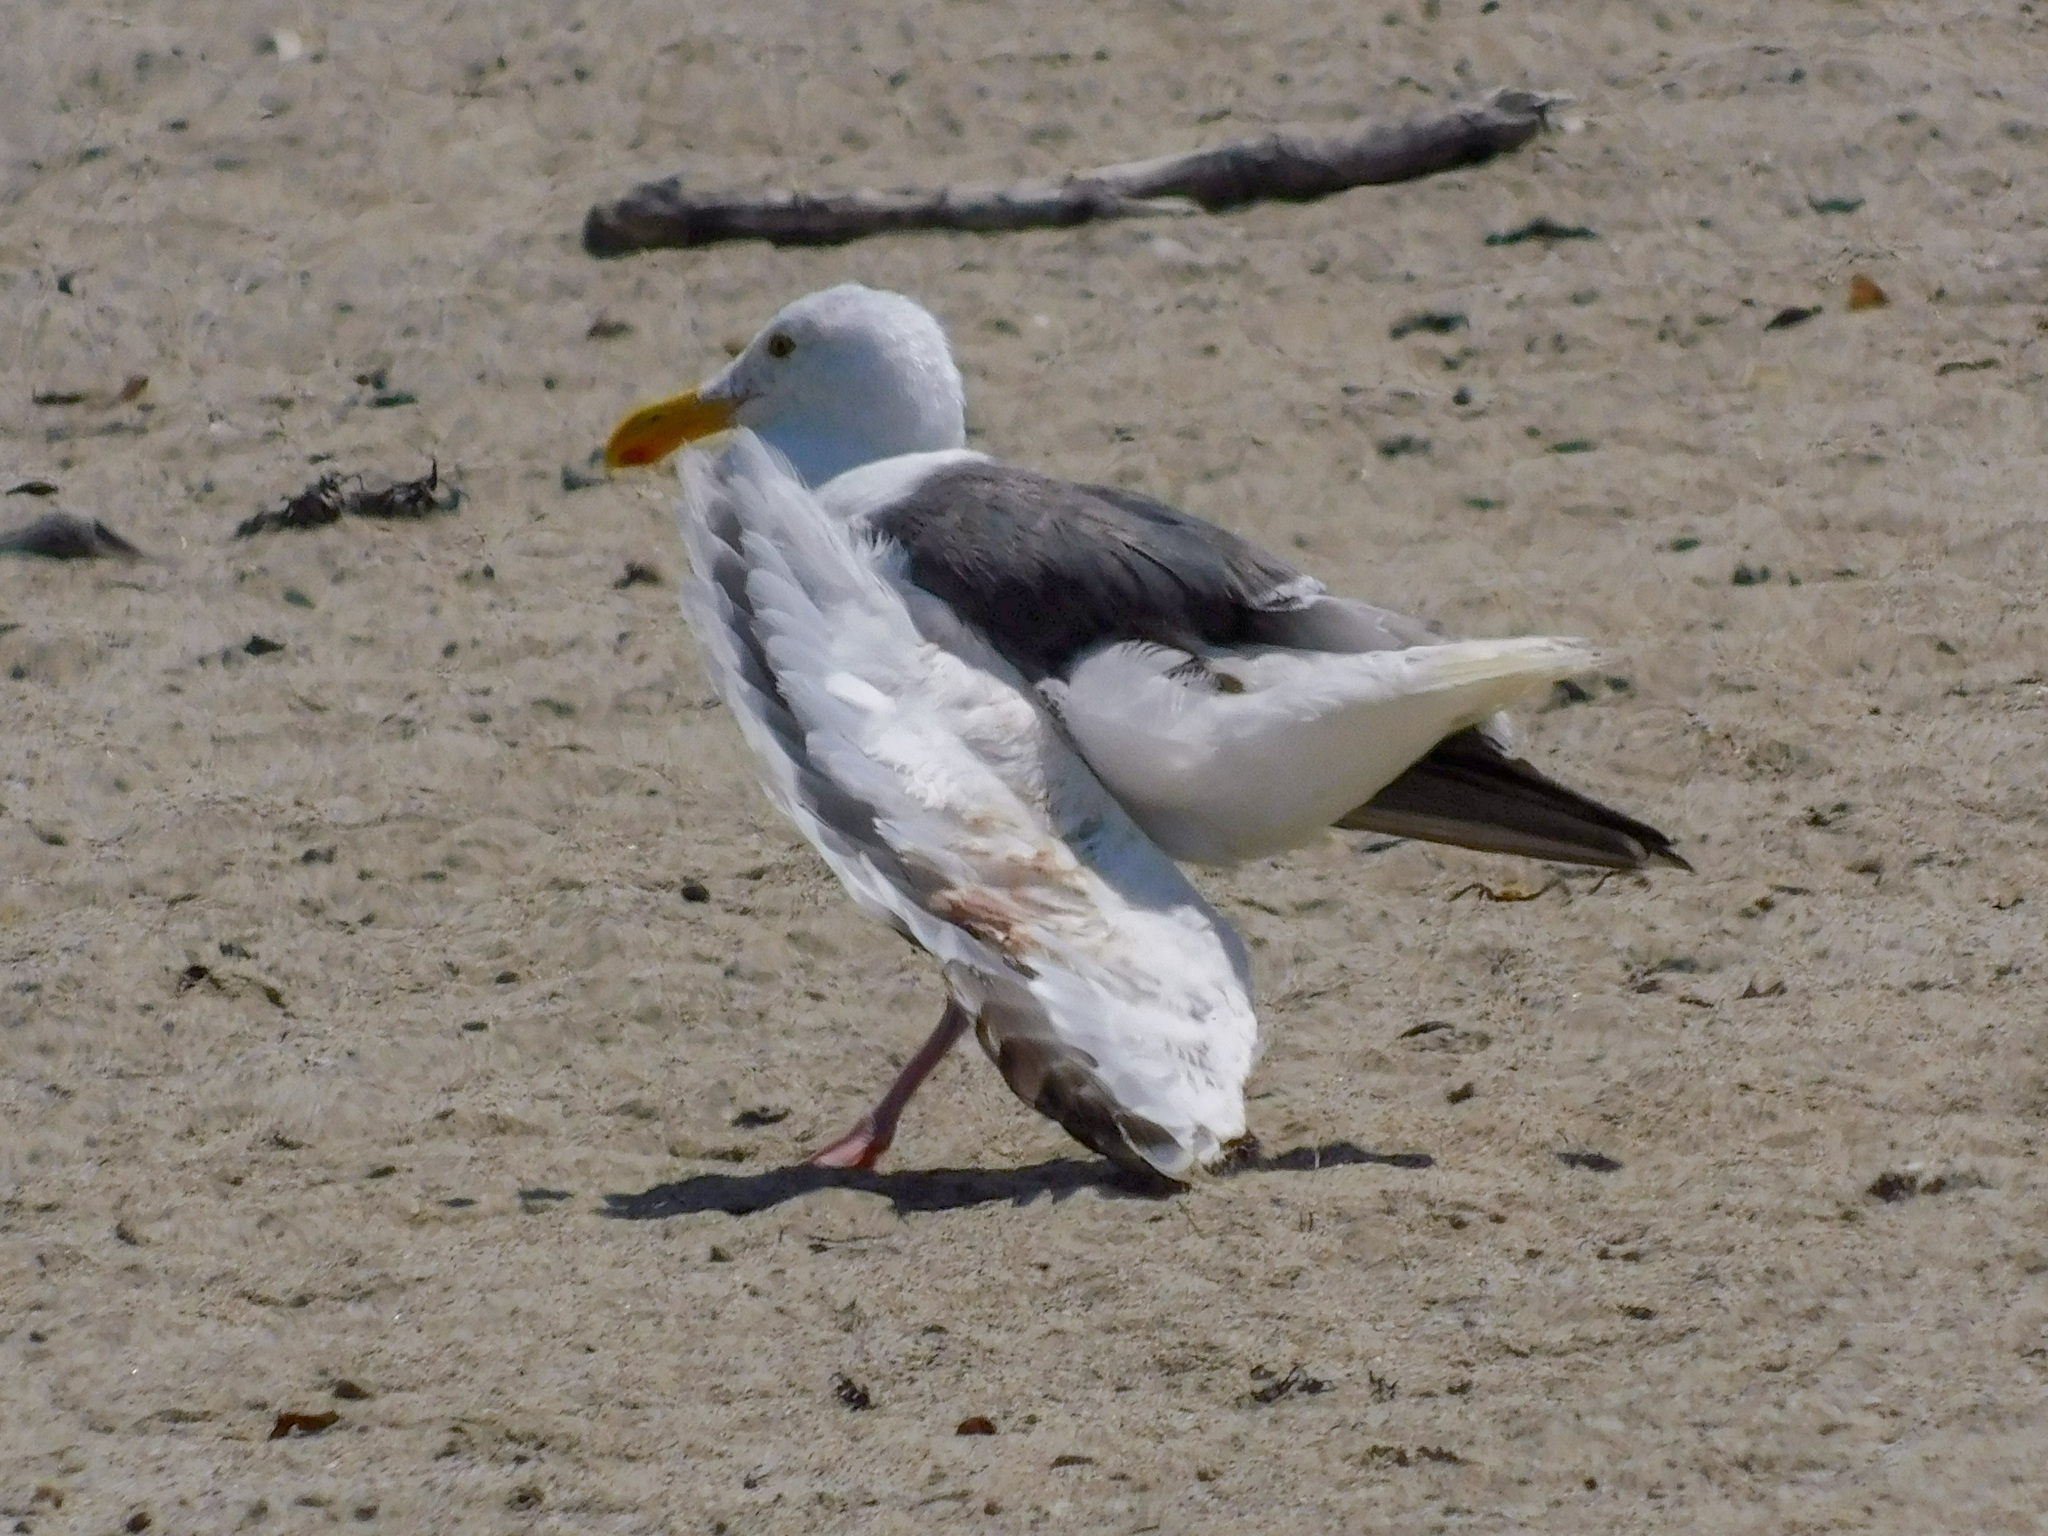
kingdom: Animalia
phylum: Chordata
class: Aves
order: Charadriiformes
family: Laridae
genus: Larus
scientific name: Larus occidentalis
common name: Western gull
